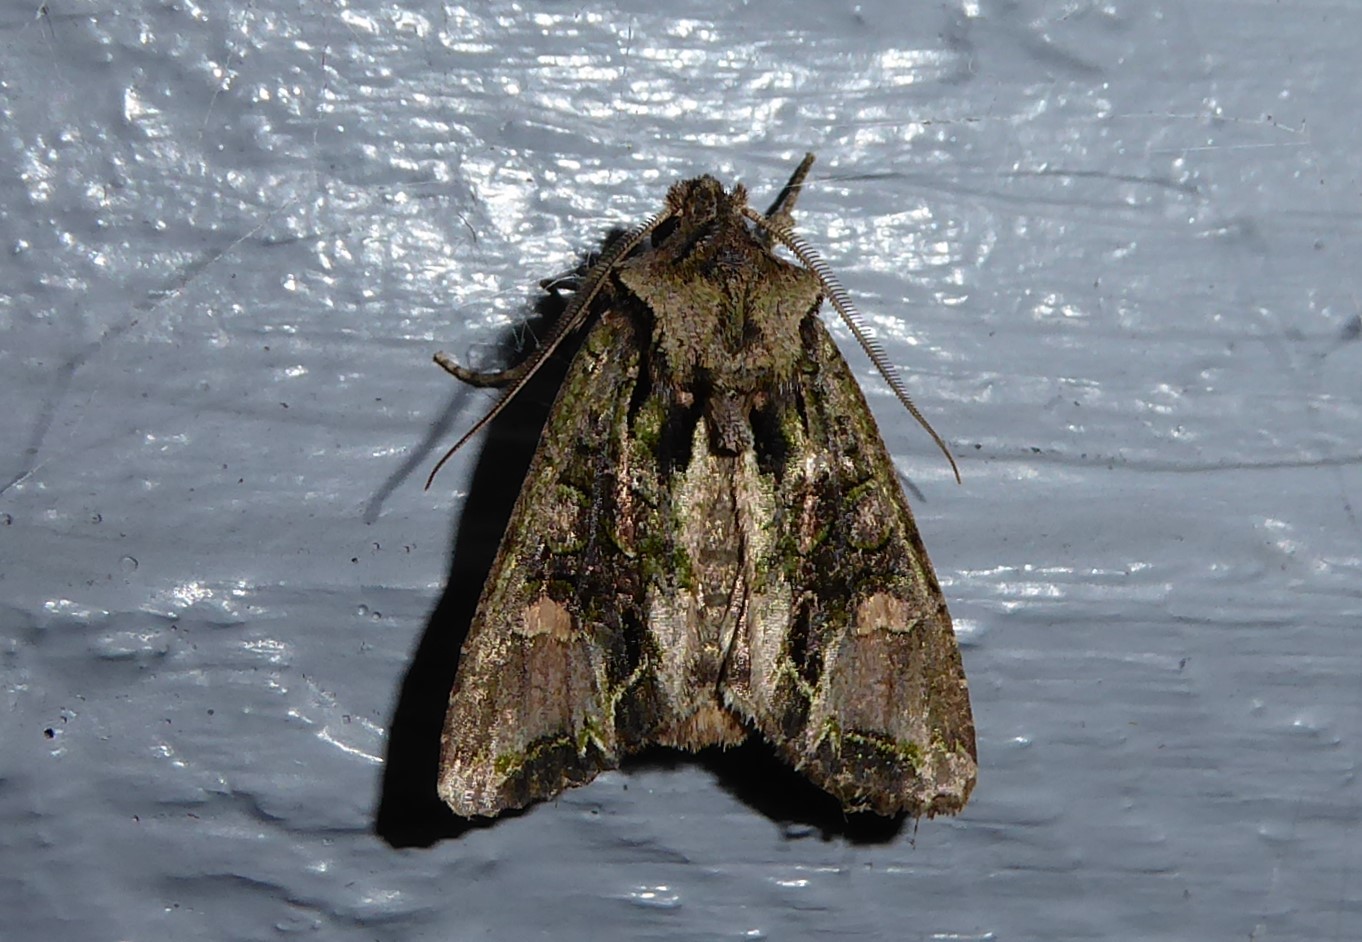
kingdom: Animalia
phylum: Arthropoda
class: Insecta
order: Lepidoptera
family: Noctuidae
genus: Ichneutica
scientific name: Ichneutica insignis
